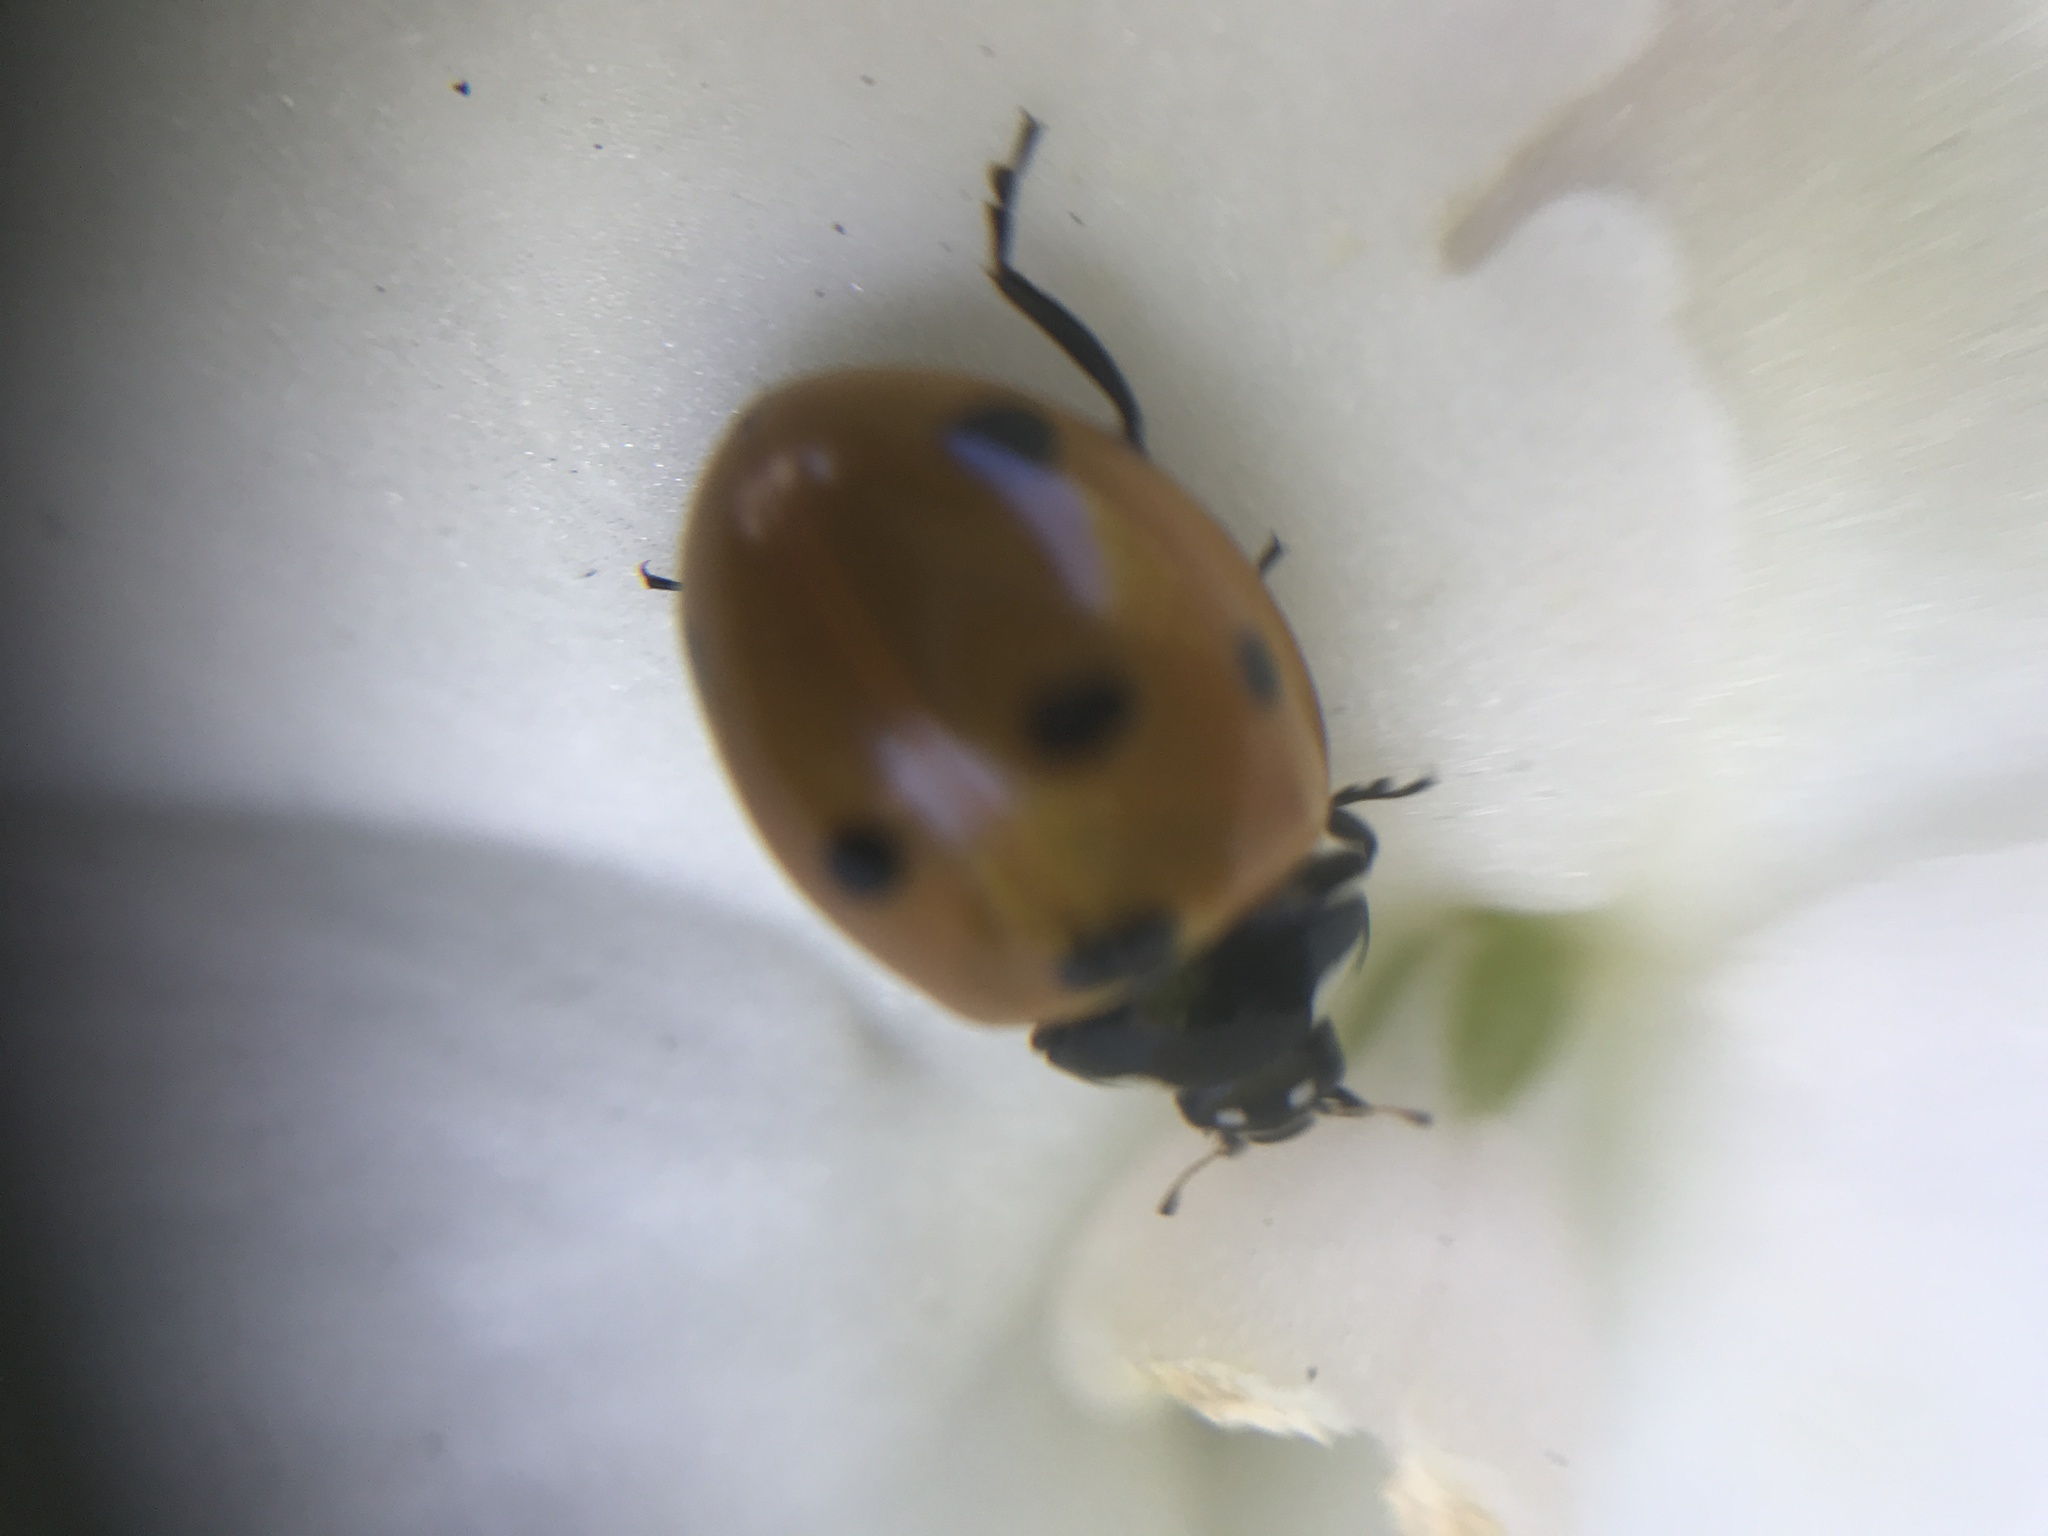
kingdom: Animalia
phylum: Arthropoda
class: Insecta
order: Coleoptera
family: Coccinellidae
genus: Coccinella
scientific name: Coccinella septempunctata
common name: Sevenspotted lady beetle
